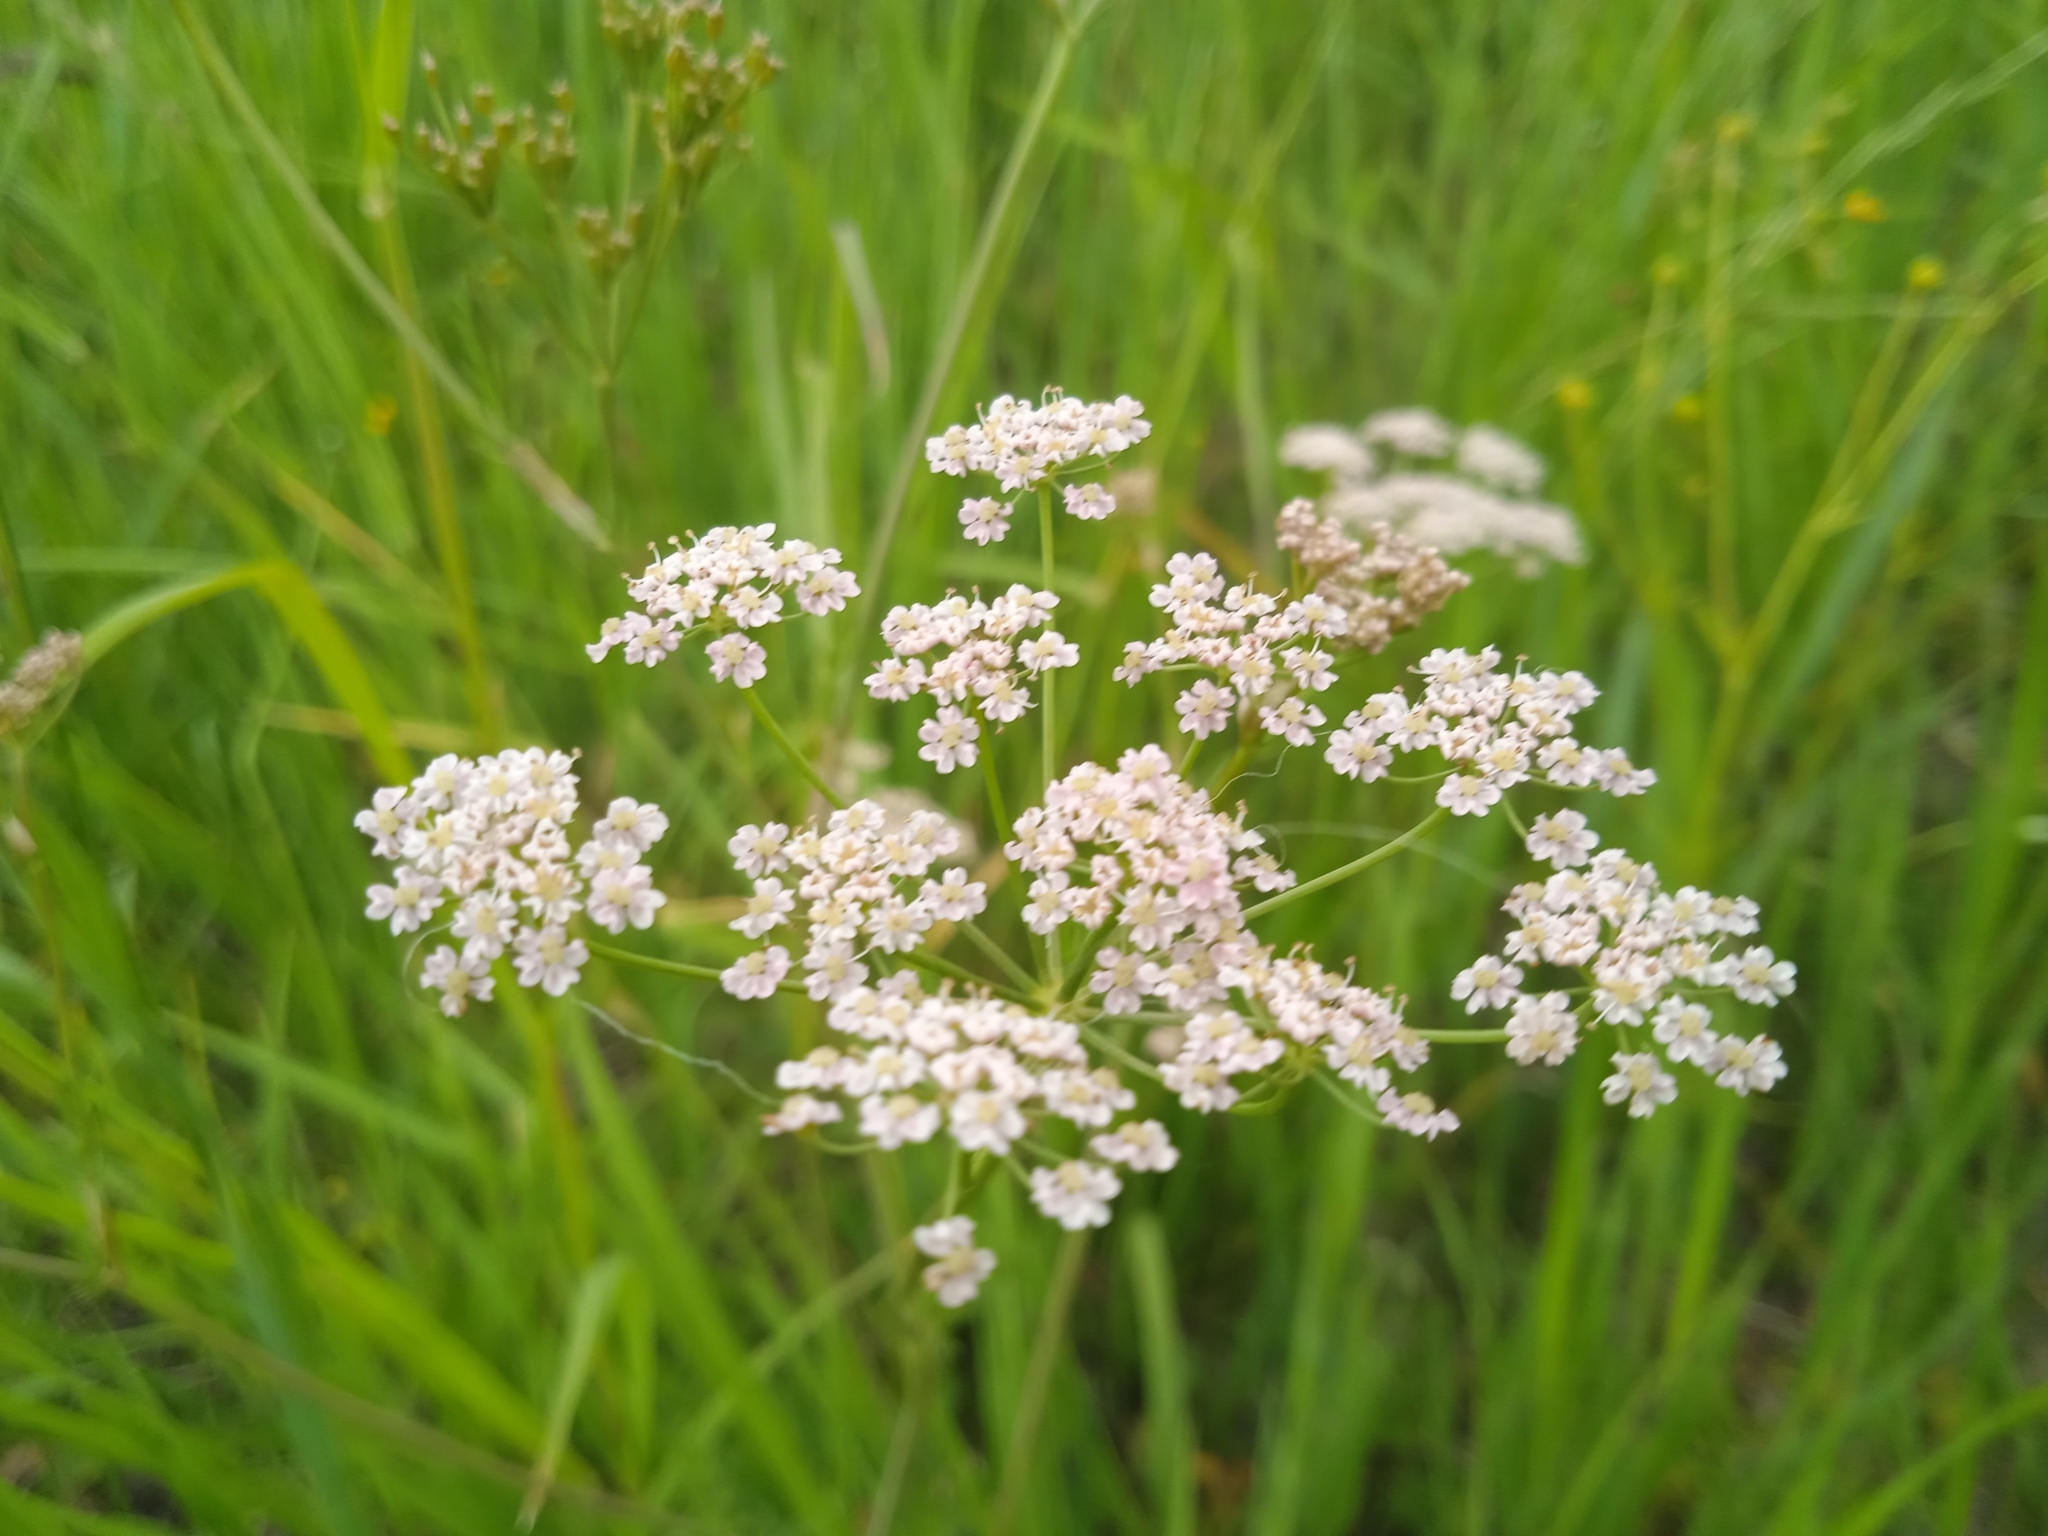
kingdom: Plantae
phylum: Tracheophyta
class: Magnoliopsida
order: Apiales
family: Apiaceae
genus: Carum
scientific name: Carum carvi
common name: Caraway
